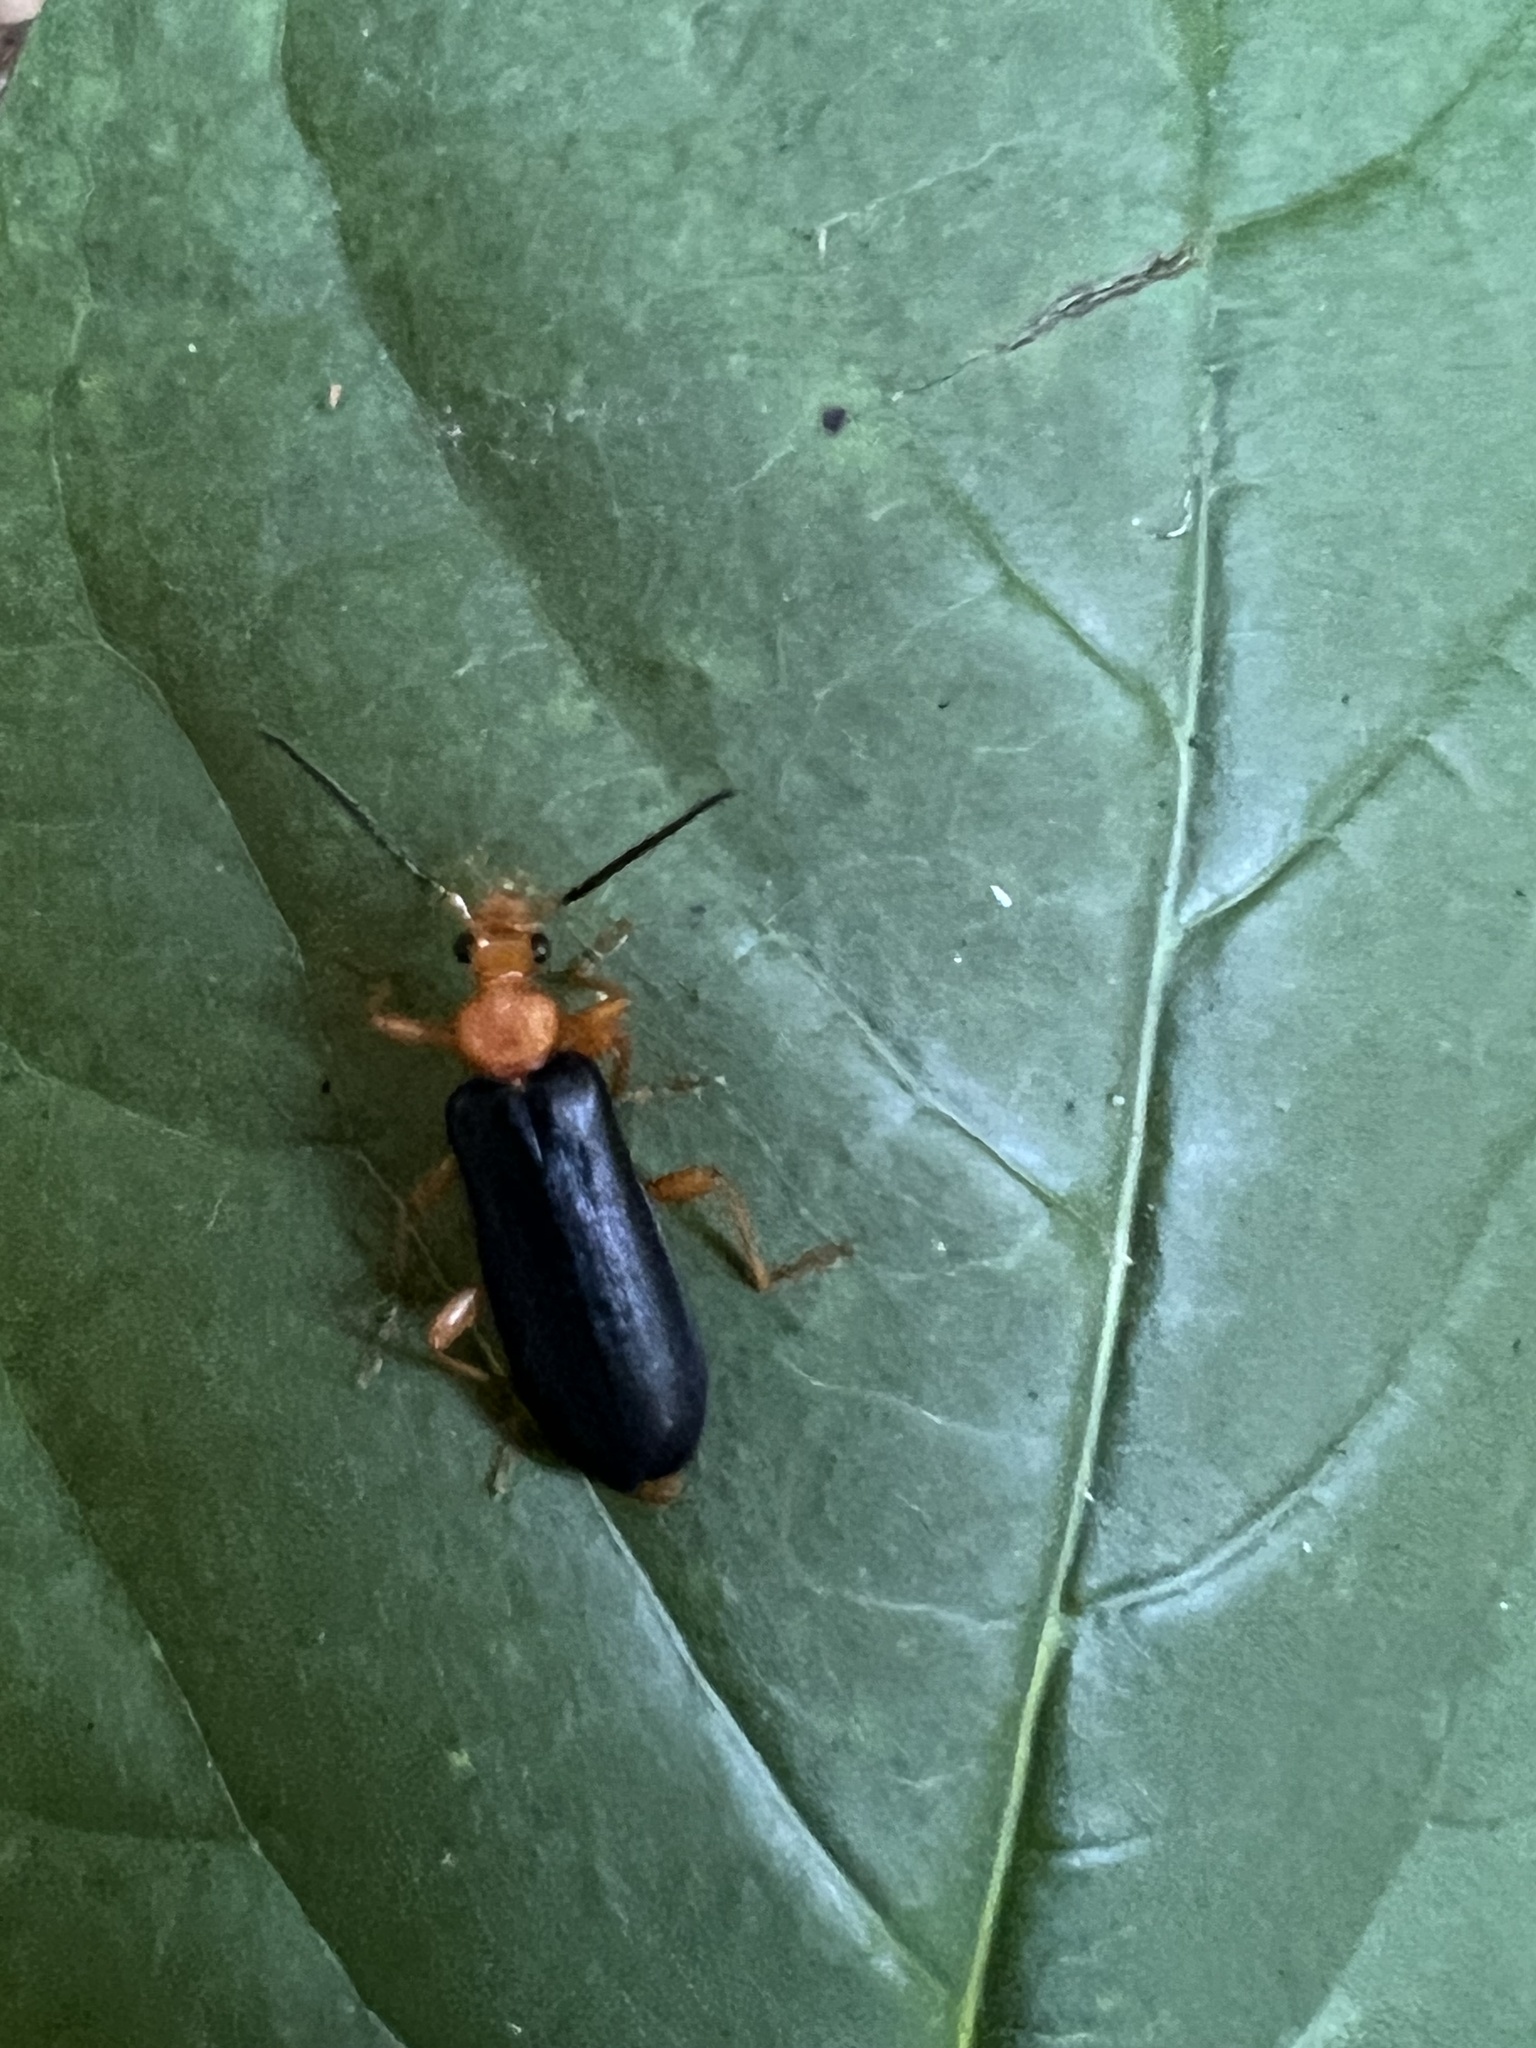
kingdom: Animalia
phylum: Arthropoda
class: Insecta
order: Coleoptera
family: Pyrochroidae
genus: Neopyrochroa
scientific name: Neopyrochroa flabellata
